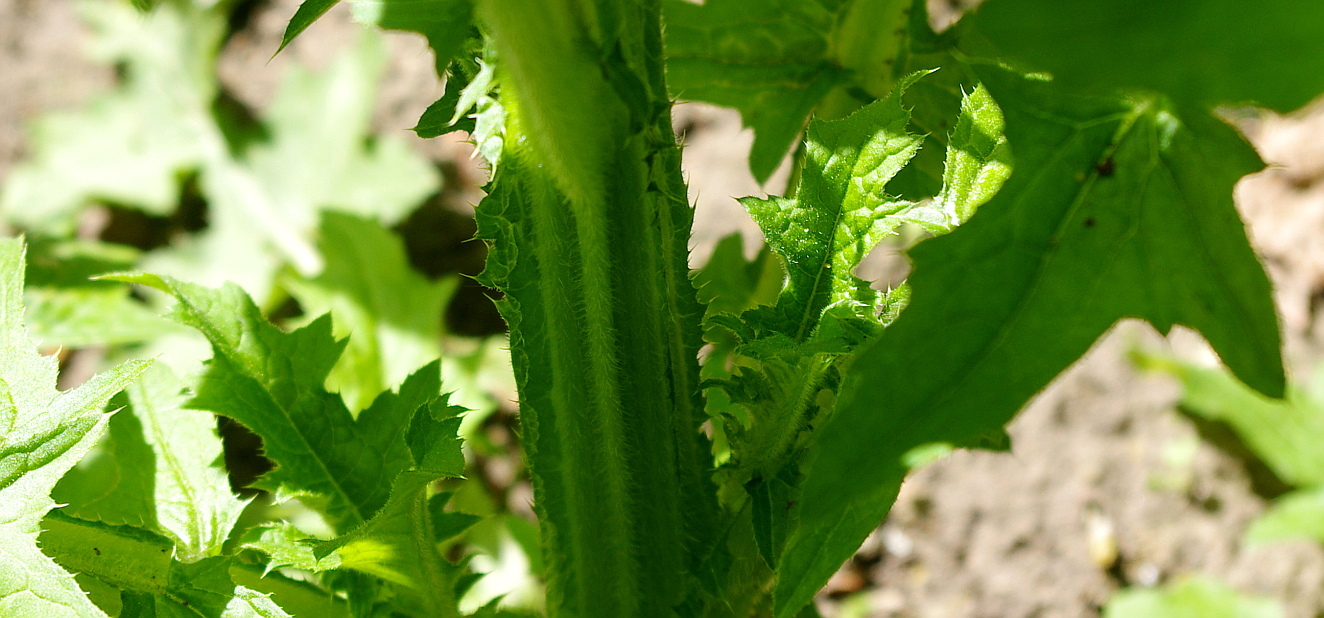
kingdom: Plantae
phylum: Tracheophyta
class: Magnoliopsida
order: Asterales
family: Asteraceae
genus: Carduus
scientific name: Carduus crispus
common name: Welted thistle
